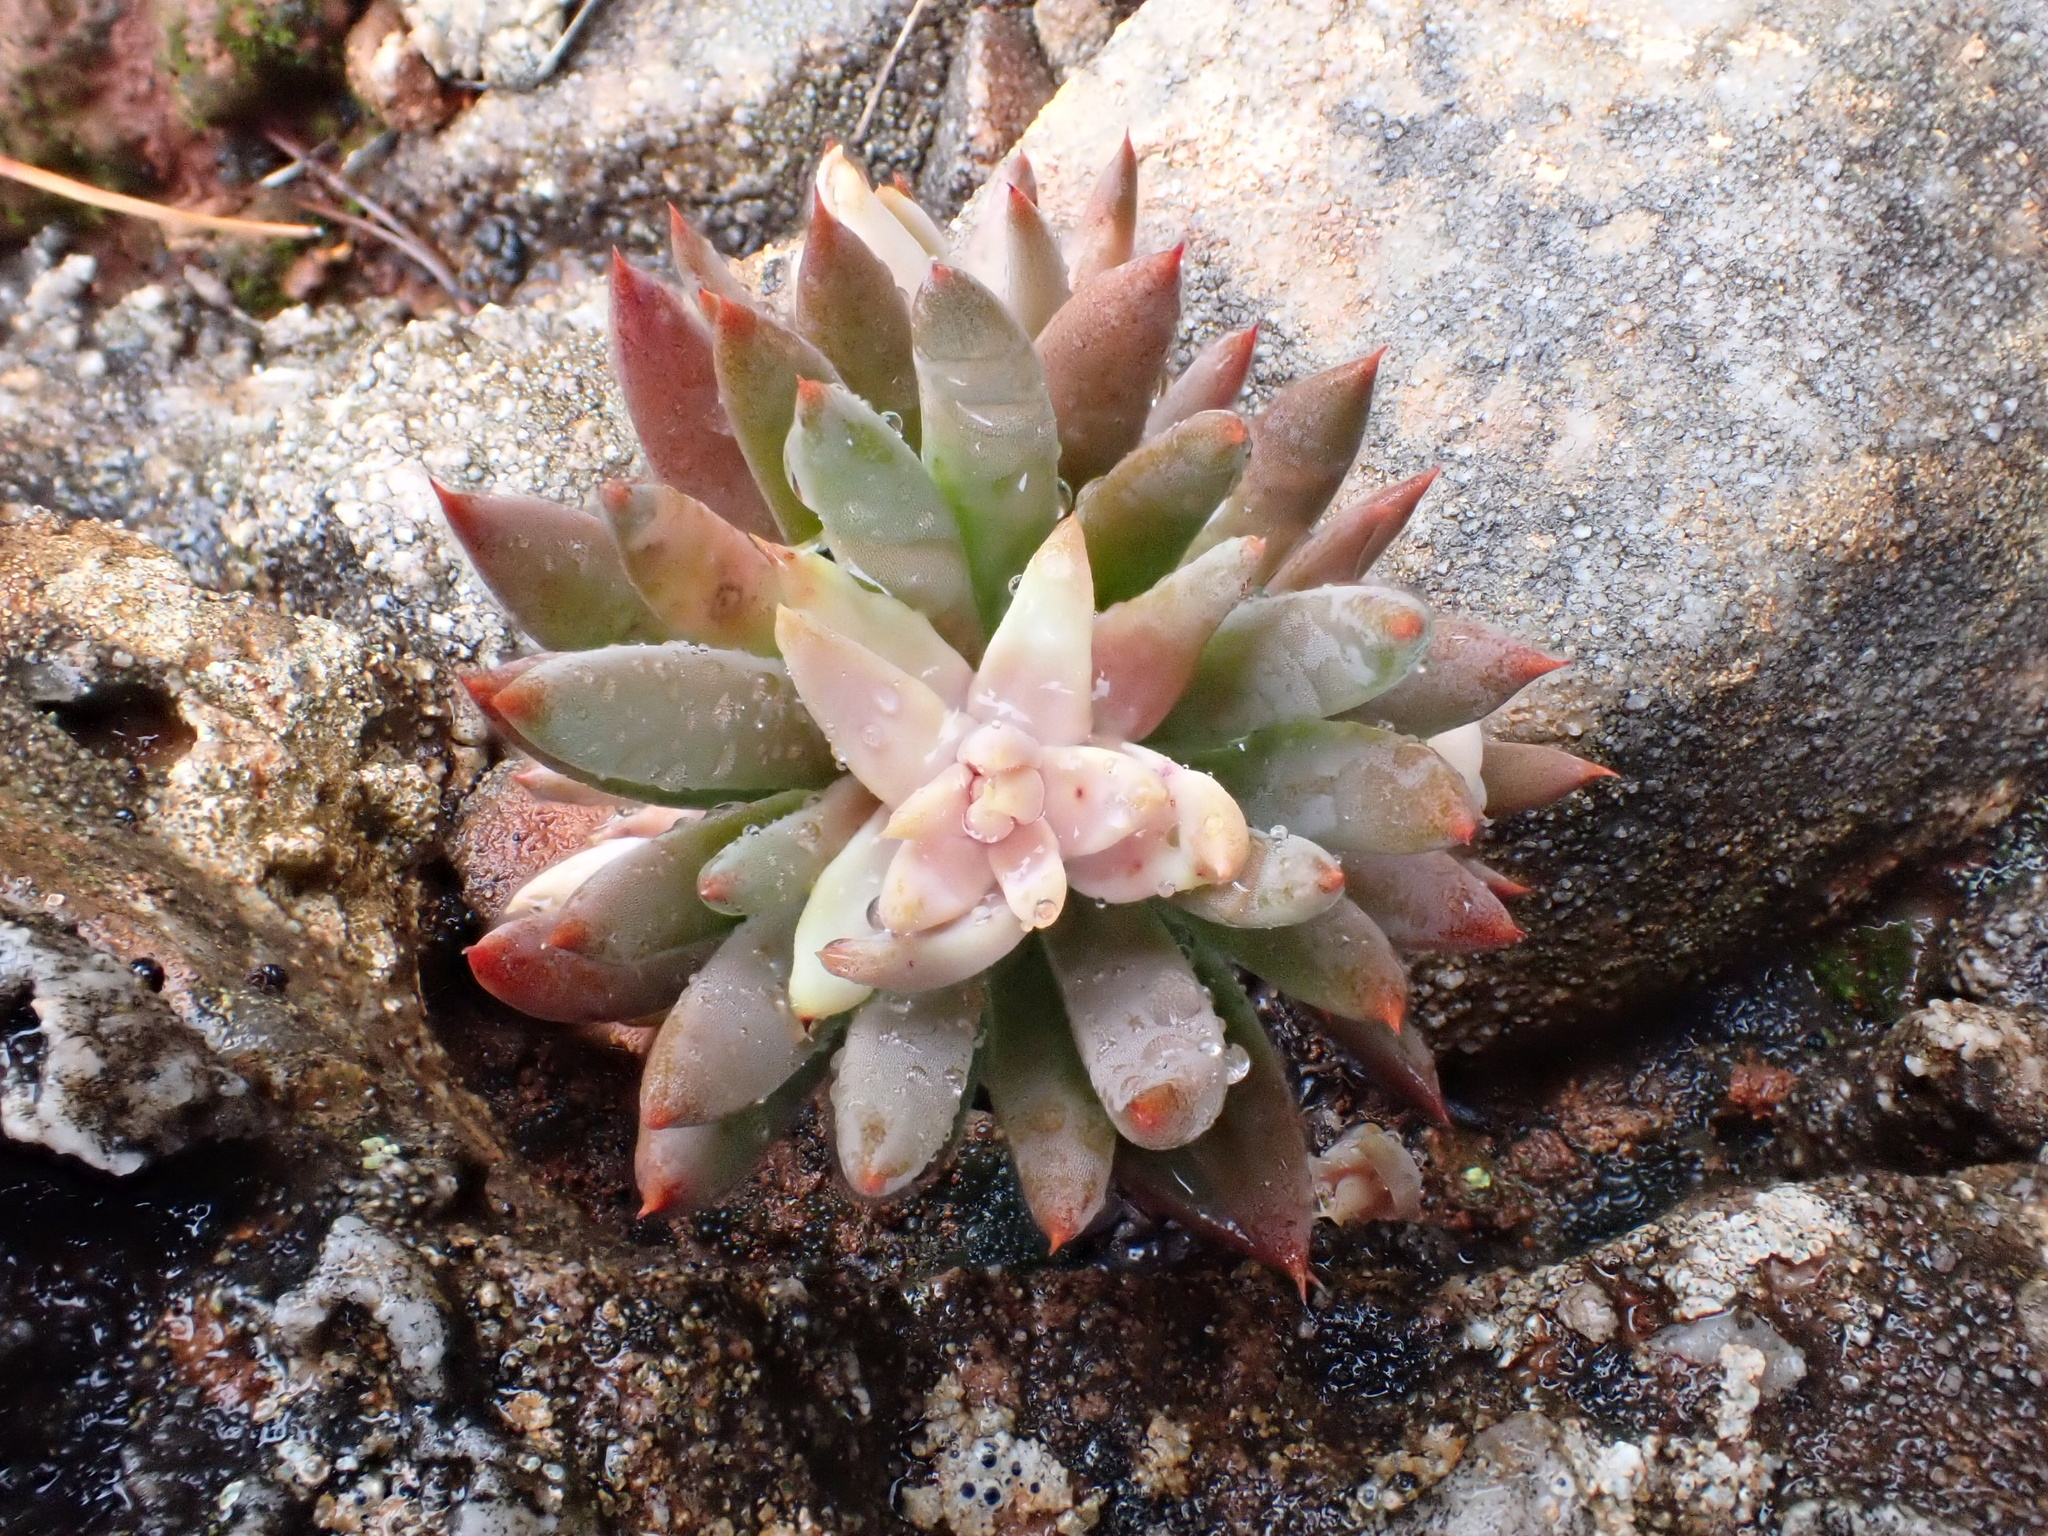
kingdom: Plantae
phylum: Tracheophyta
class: Magnoliopsida
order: Saxifragales
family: Crassulaceae
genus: Petrosedum
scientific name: Petrosedum sediforme
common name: Pale stonecrop
